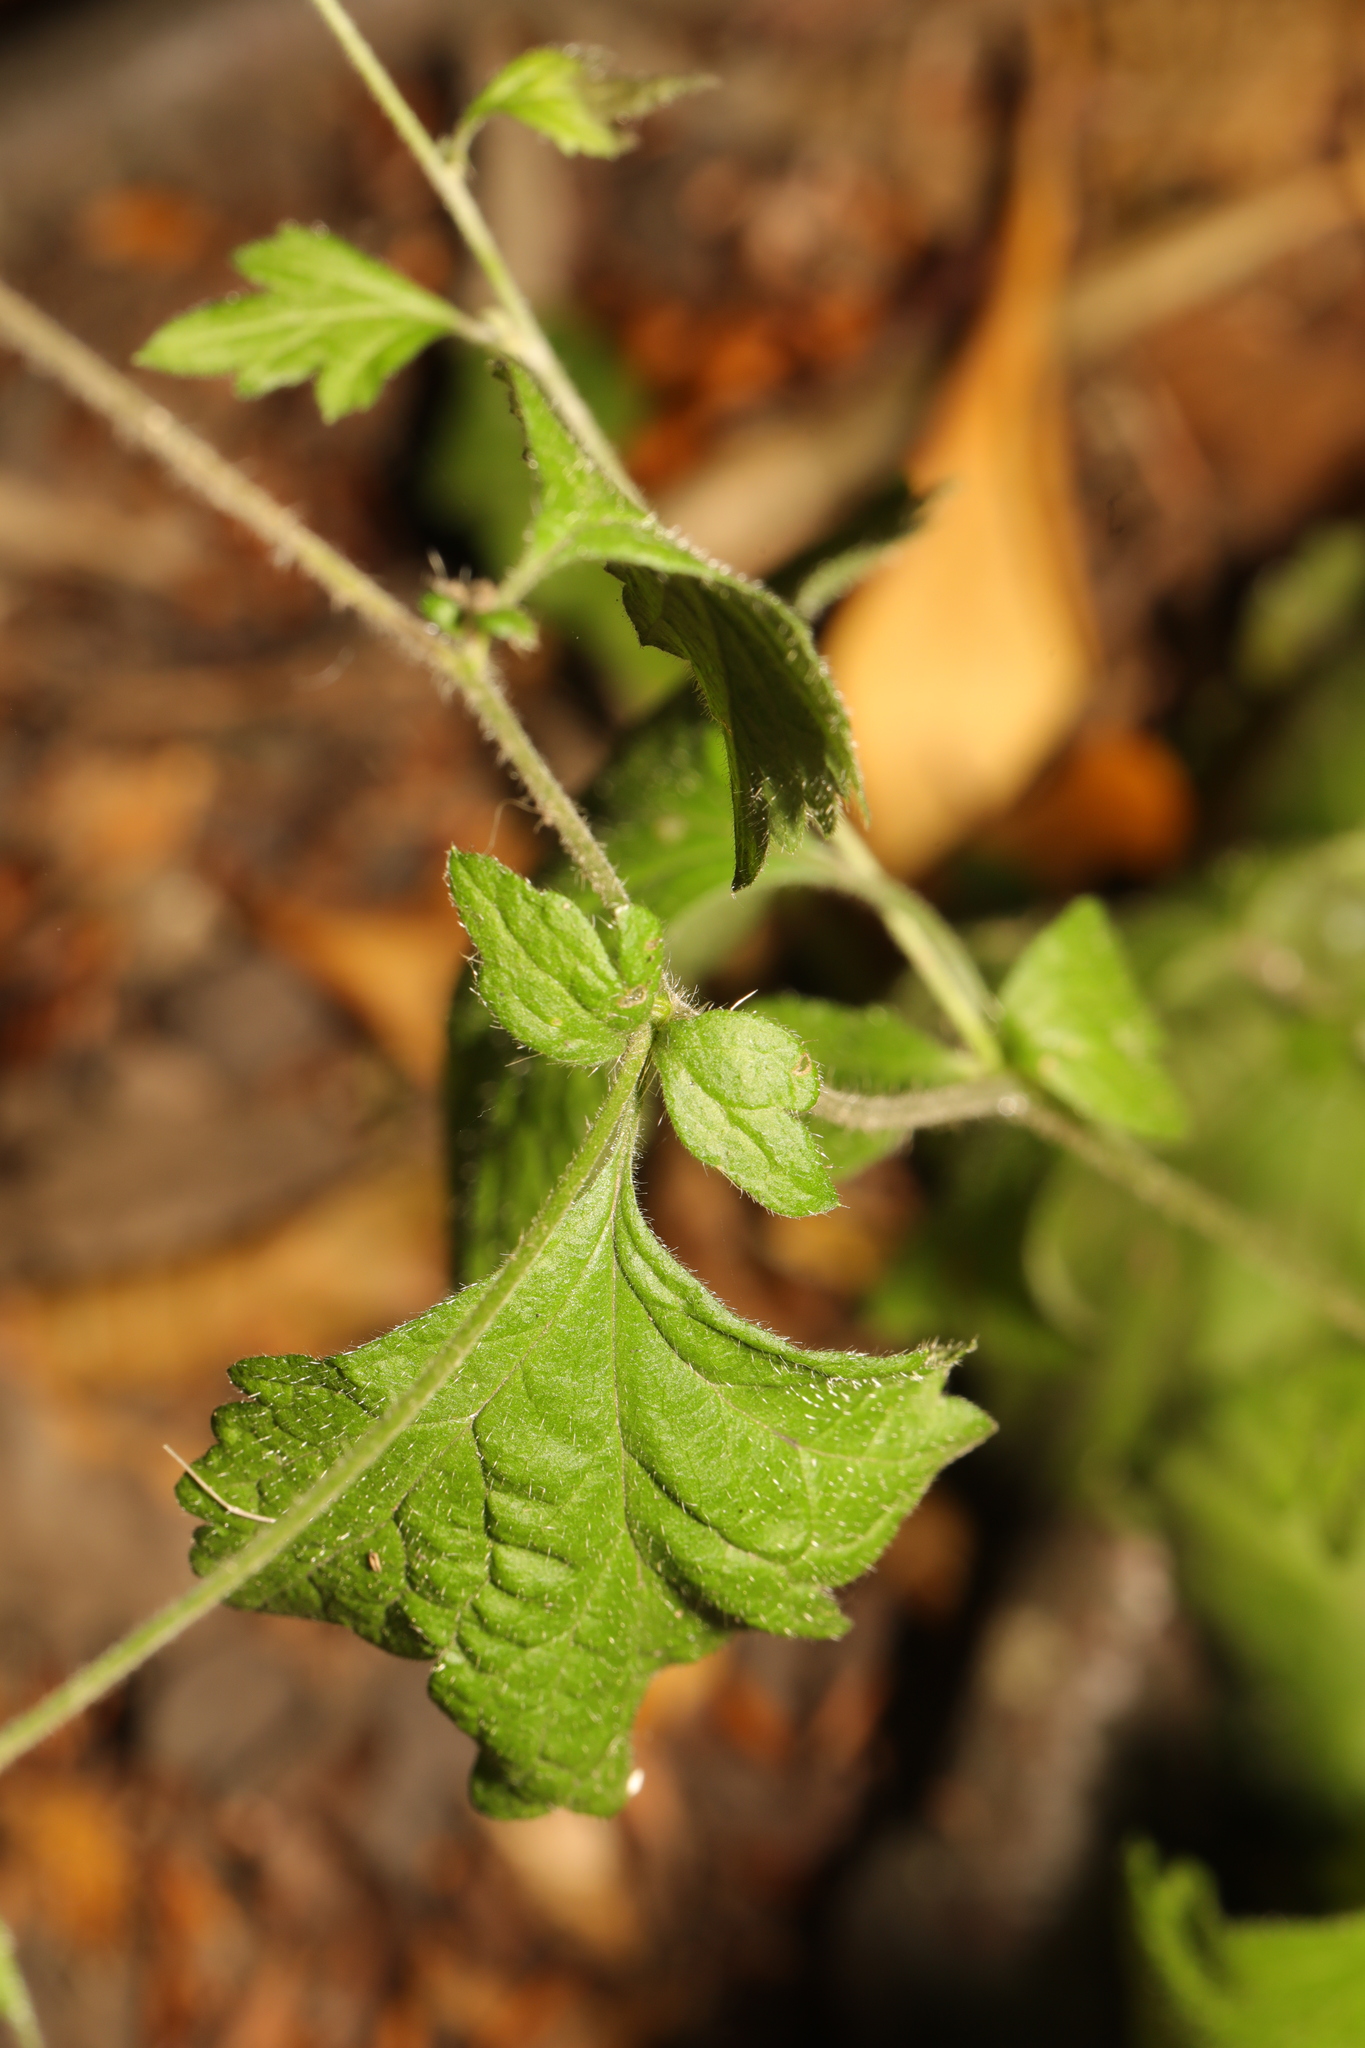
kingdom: Plantae
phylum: Tracheophyta
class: Magnoliopsida
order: Rosales
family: Rosaceae
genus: Geum
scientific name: Geum urbanum
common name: Wood avens
